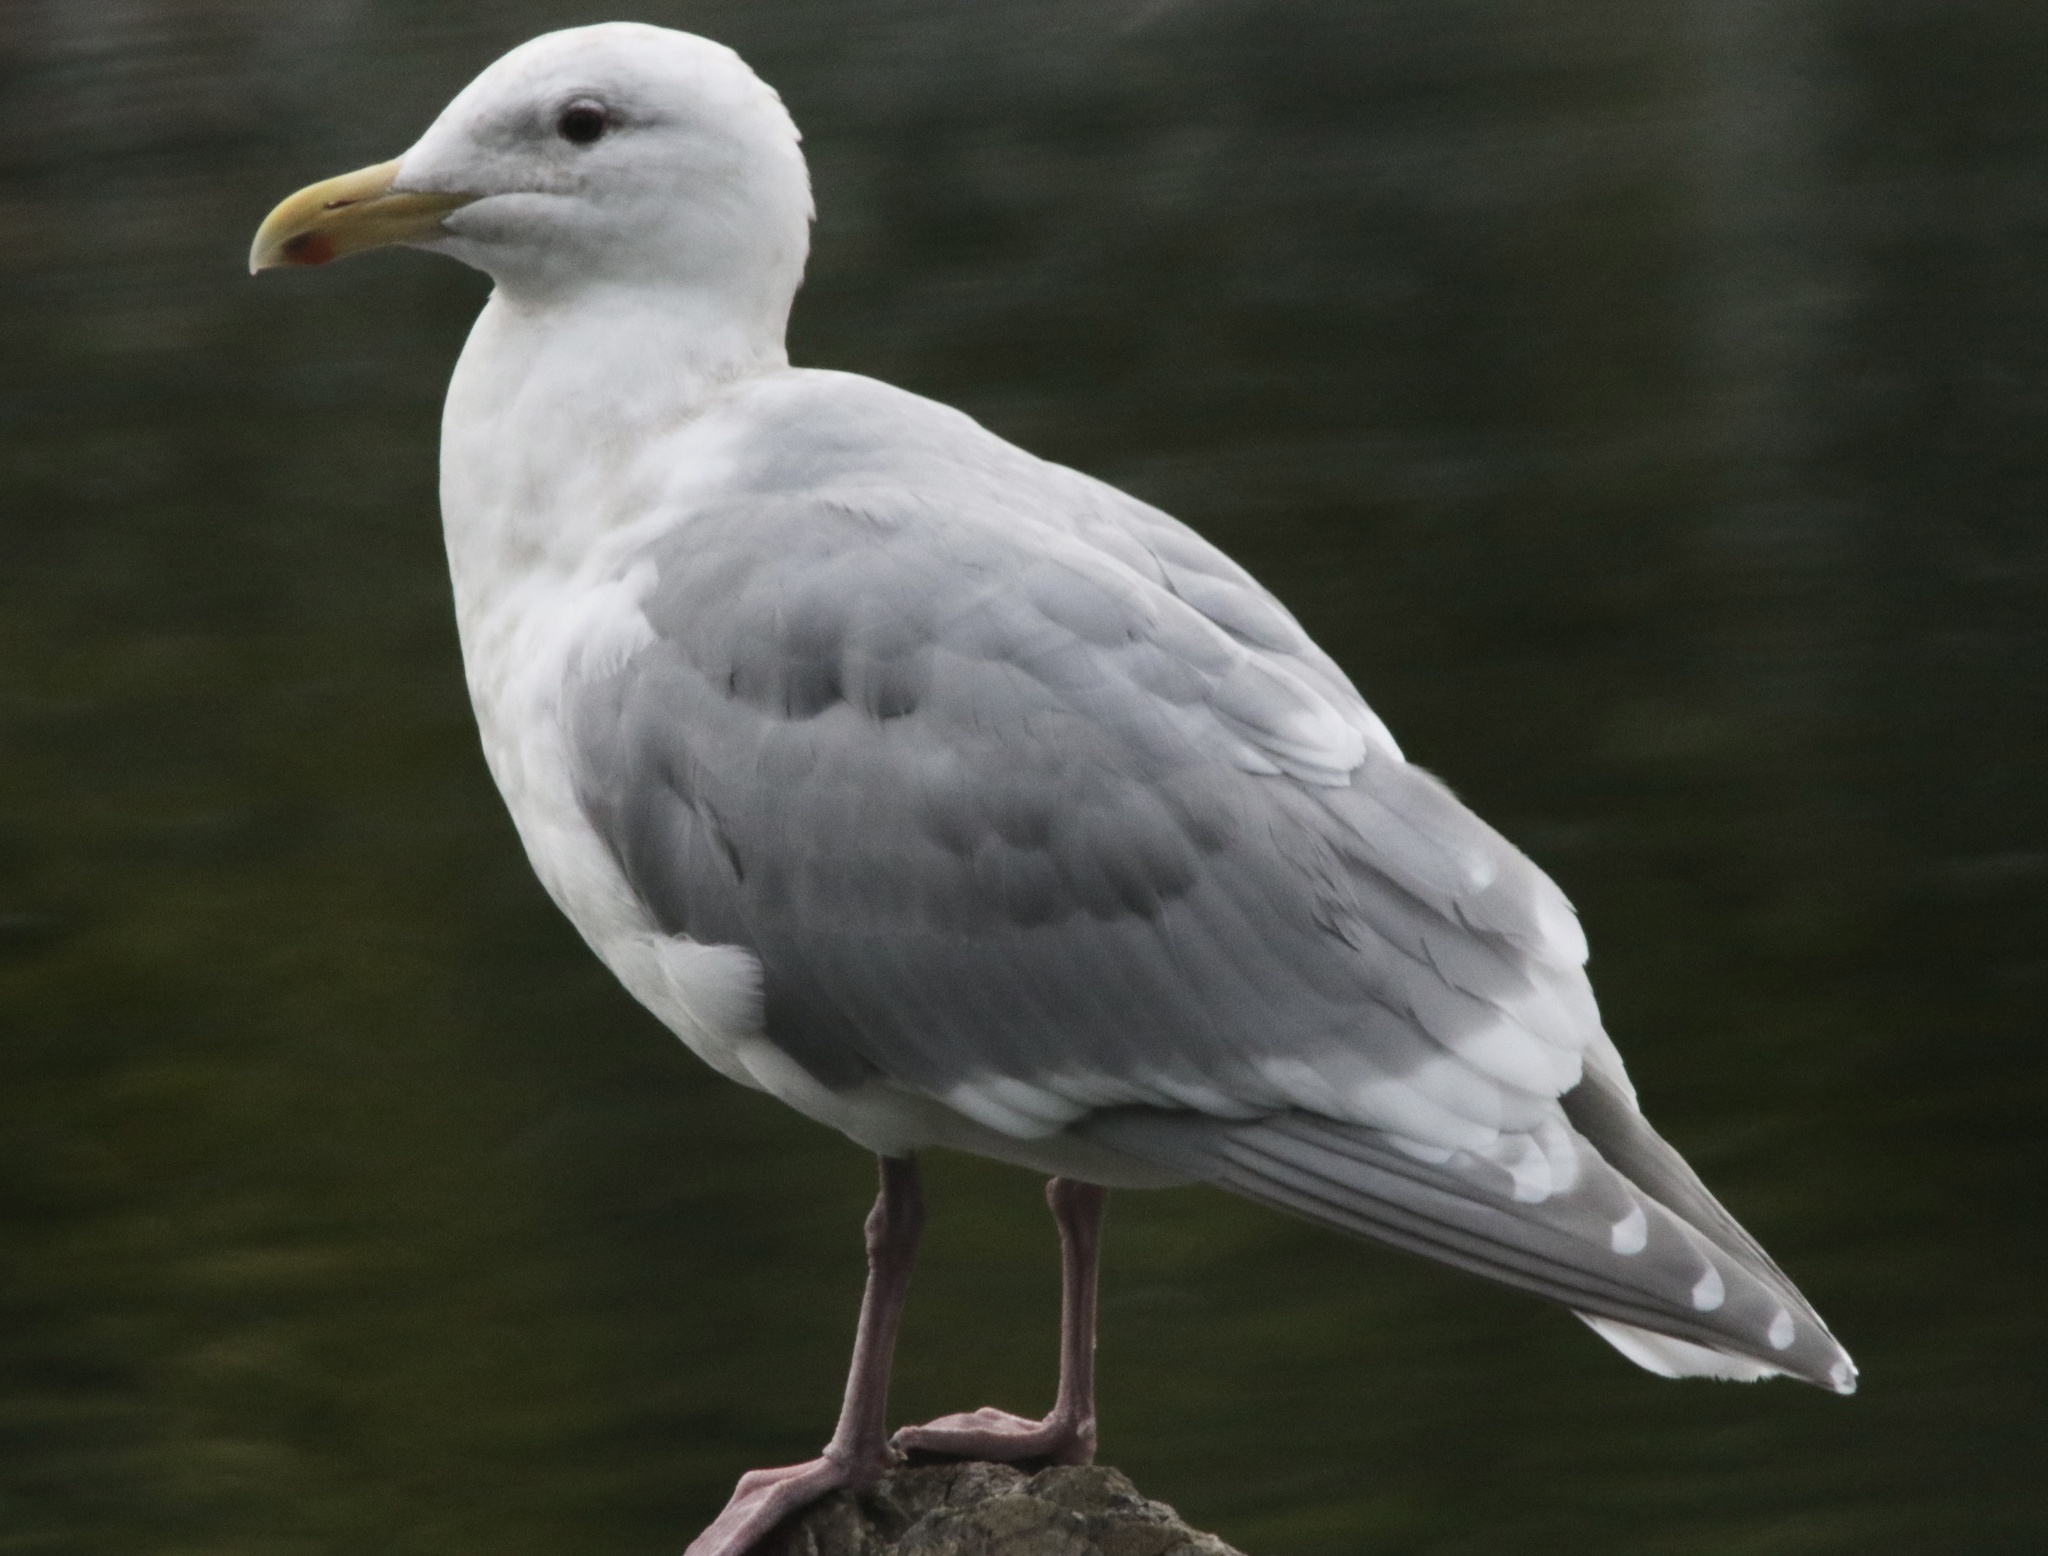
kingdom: Animalia
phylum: Chordata
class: Aves
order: Charadriiformes
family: Laridae
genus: Larus
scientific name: Larus glaucescens
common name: Glaucous-winged gull
